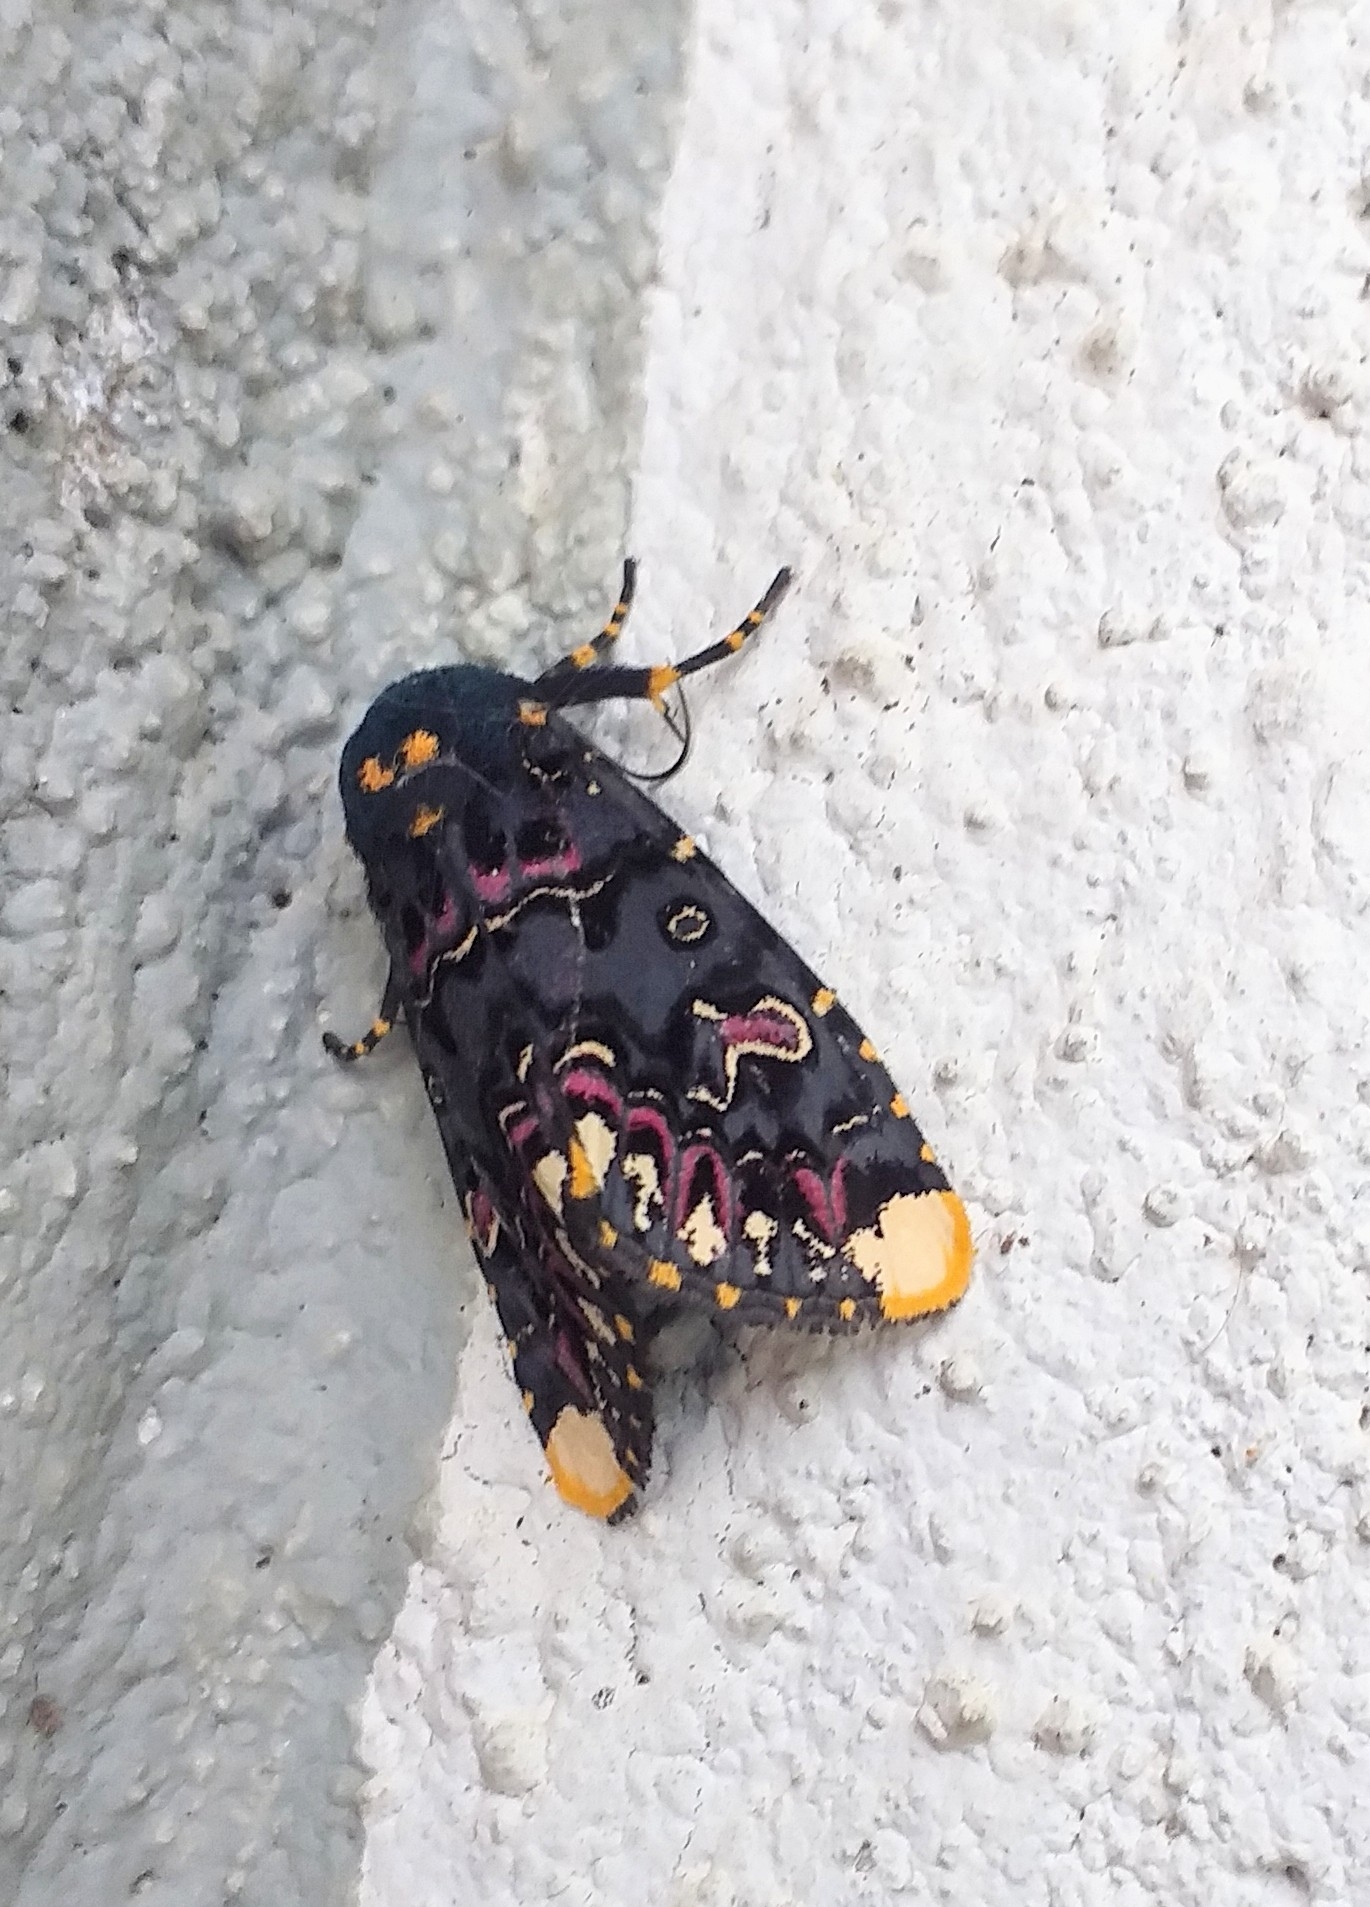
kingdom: Animalia
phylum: Arthropoda
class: Insecta
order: Lepidoptera
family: Noctuidae
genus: Polytela
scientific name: Polytela gloriosae
